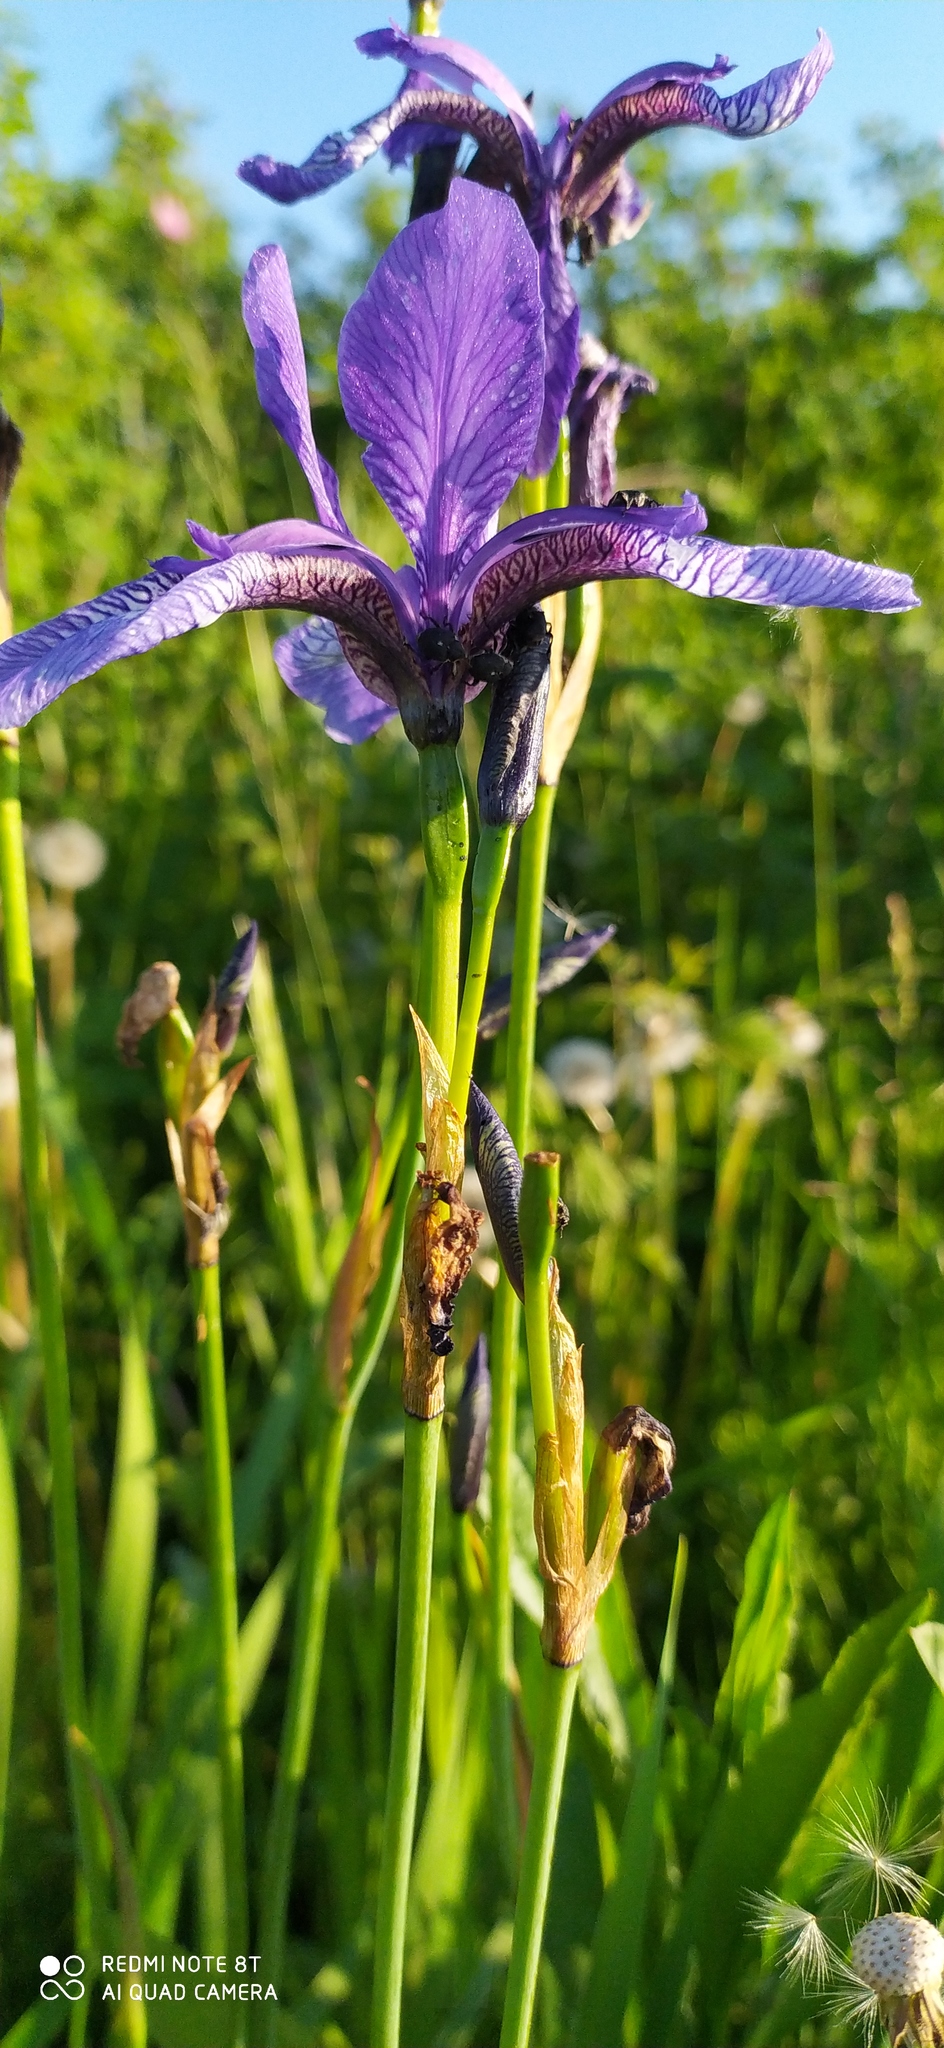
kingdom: Plantae
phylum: Tracheophyta
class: Liliopsida
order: Asparagales
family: Iridaceae
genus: Iris
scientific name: Iris sibirica
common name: Siberian iris
